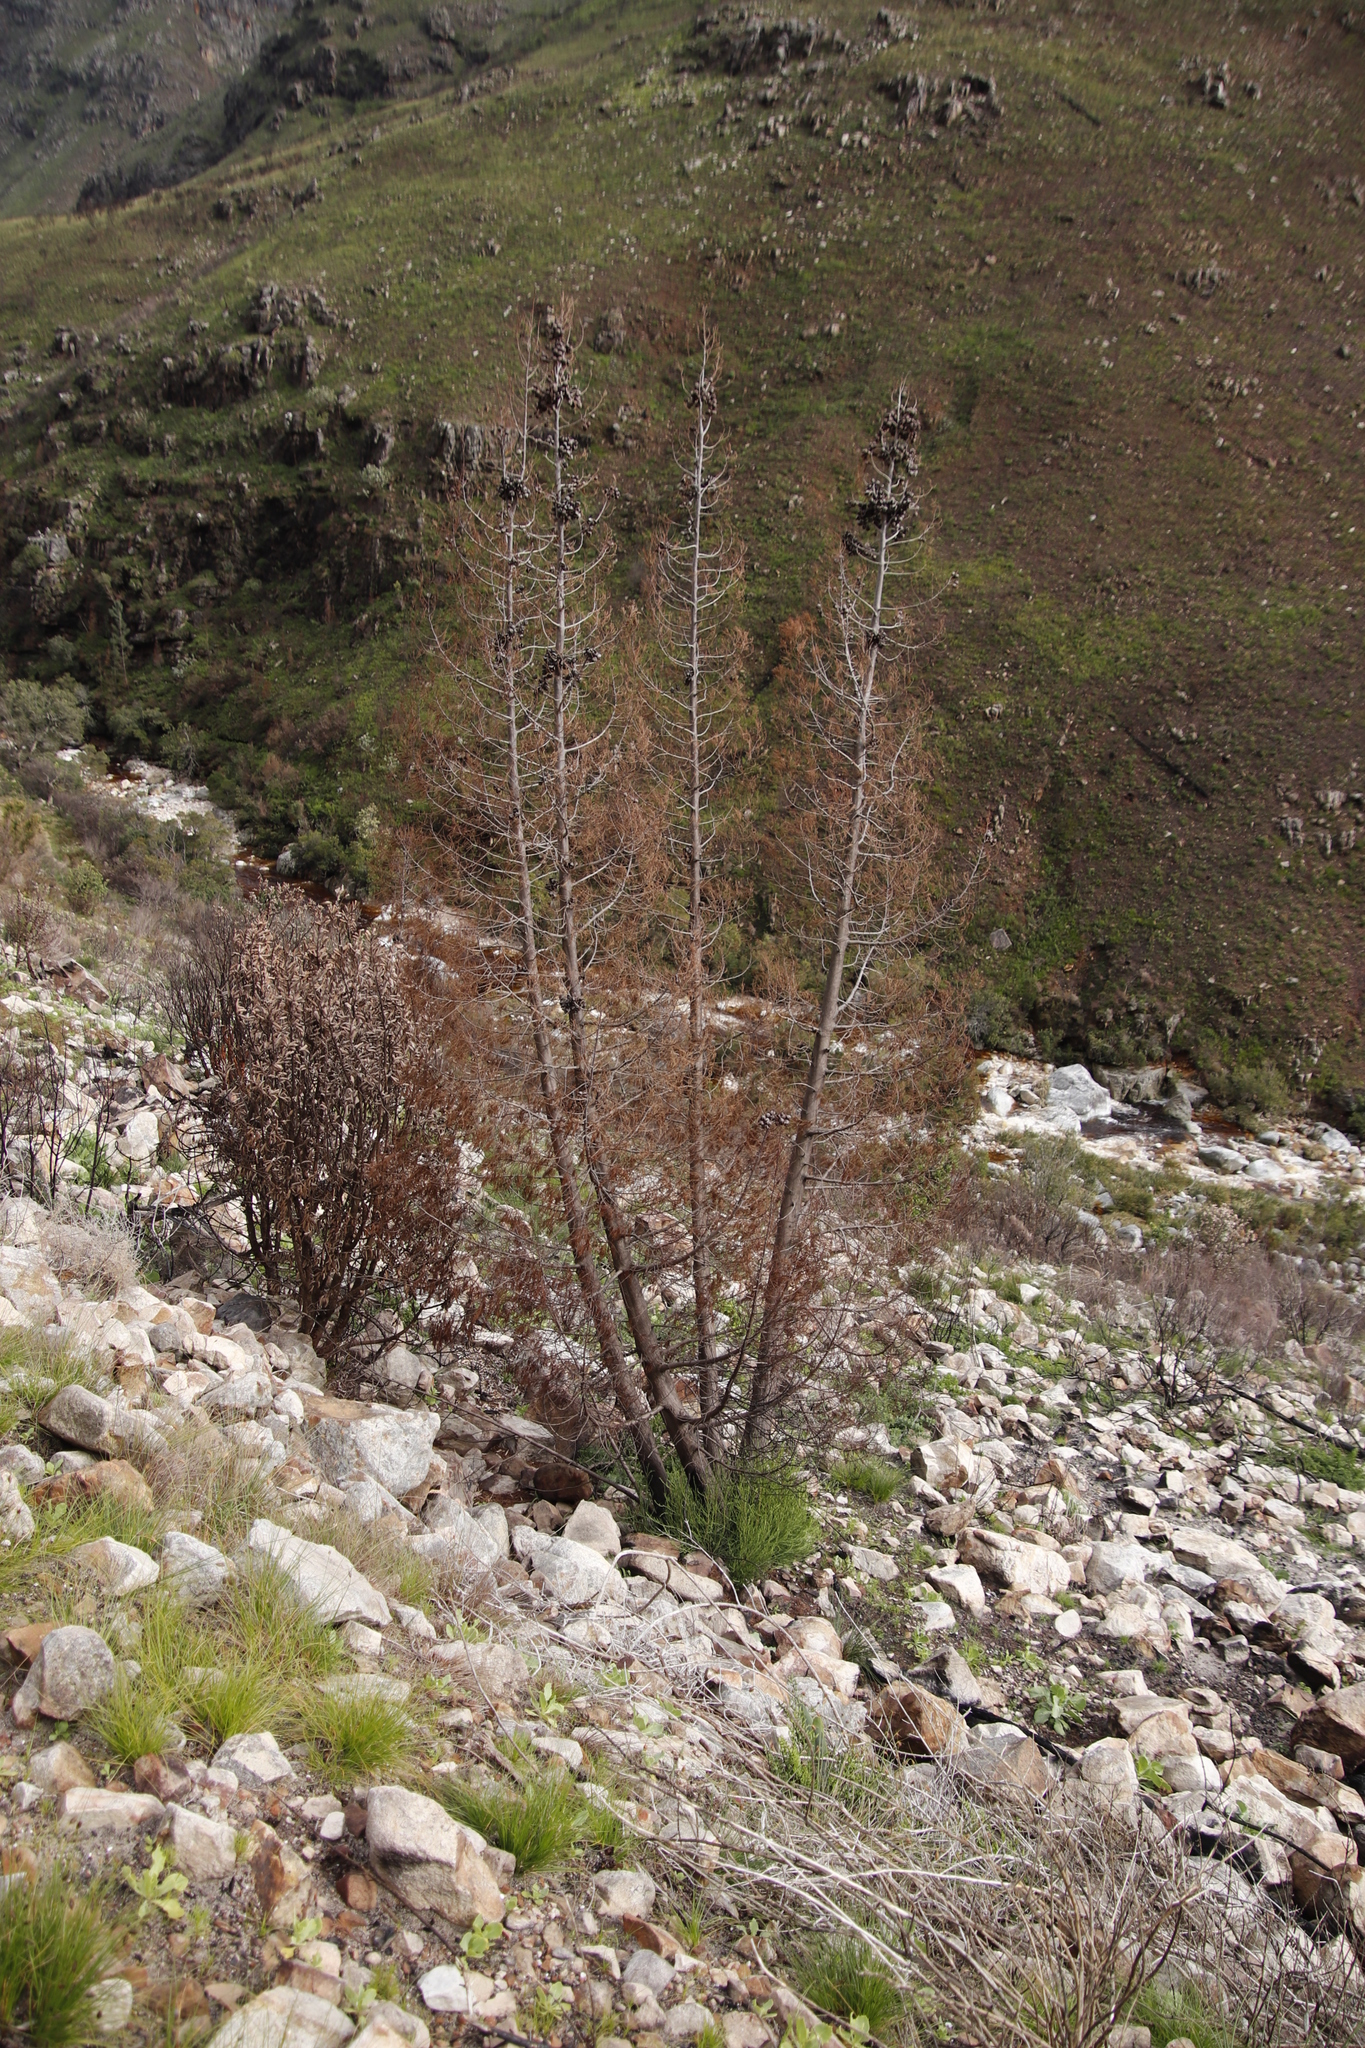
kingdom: Plantae
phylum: Tracheophyta
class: Pinopsida
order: Pinales
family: Cupressaceae
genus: Widdringtonia
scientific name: Widdringtonia nodiflora
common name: Cape cypress
